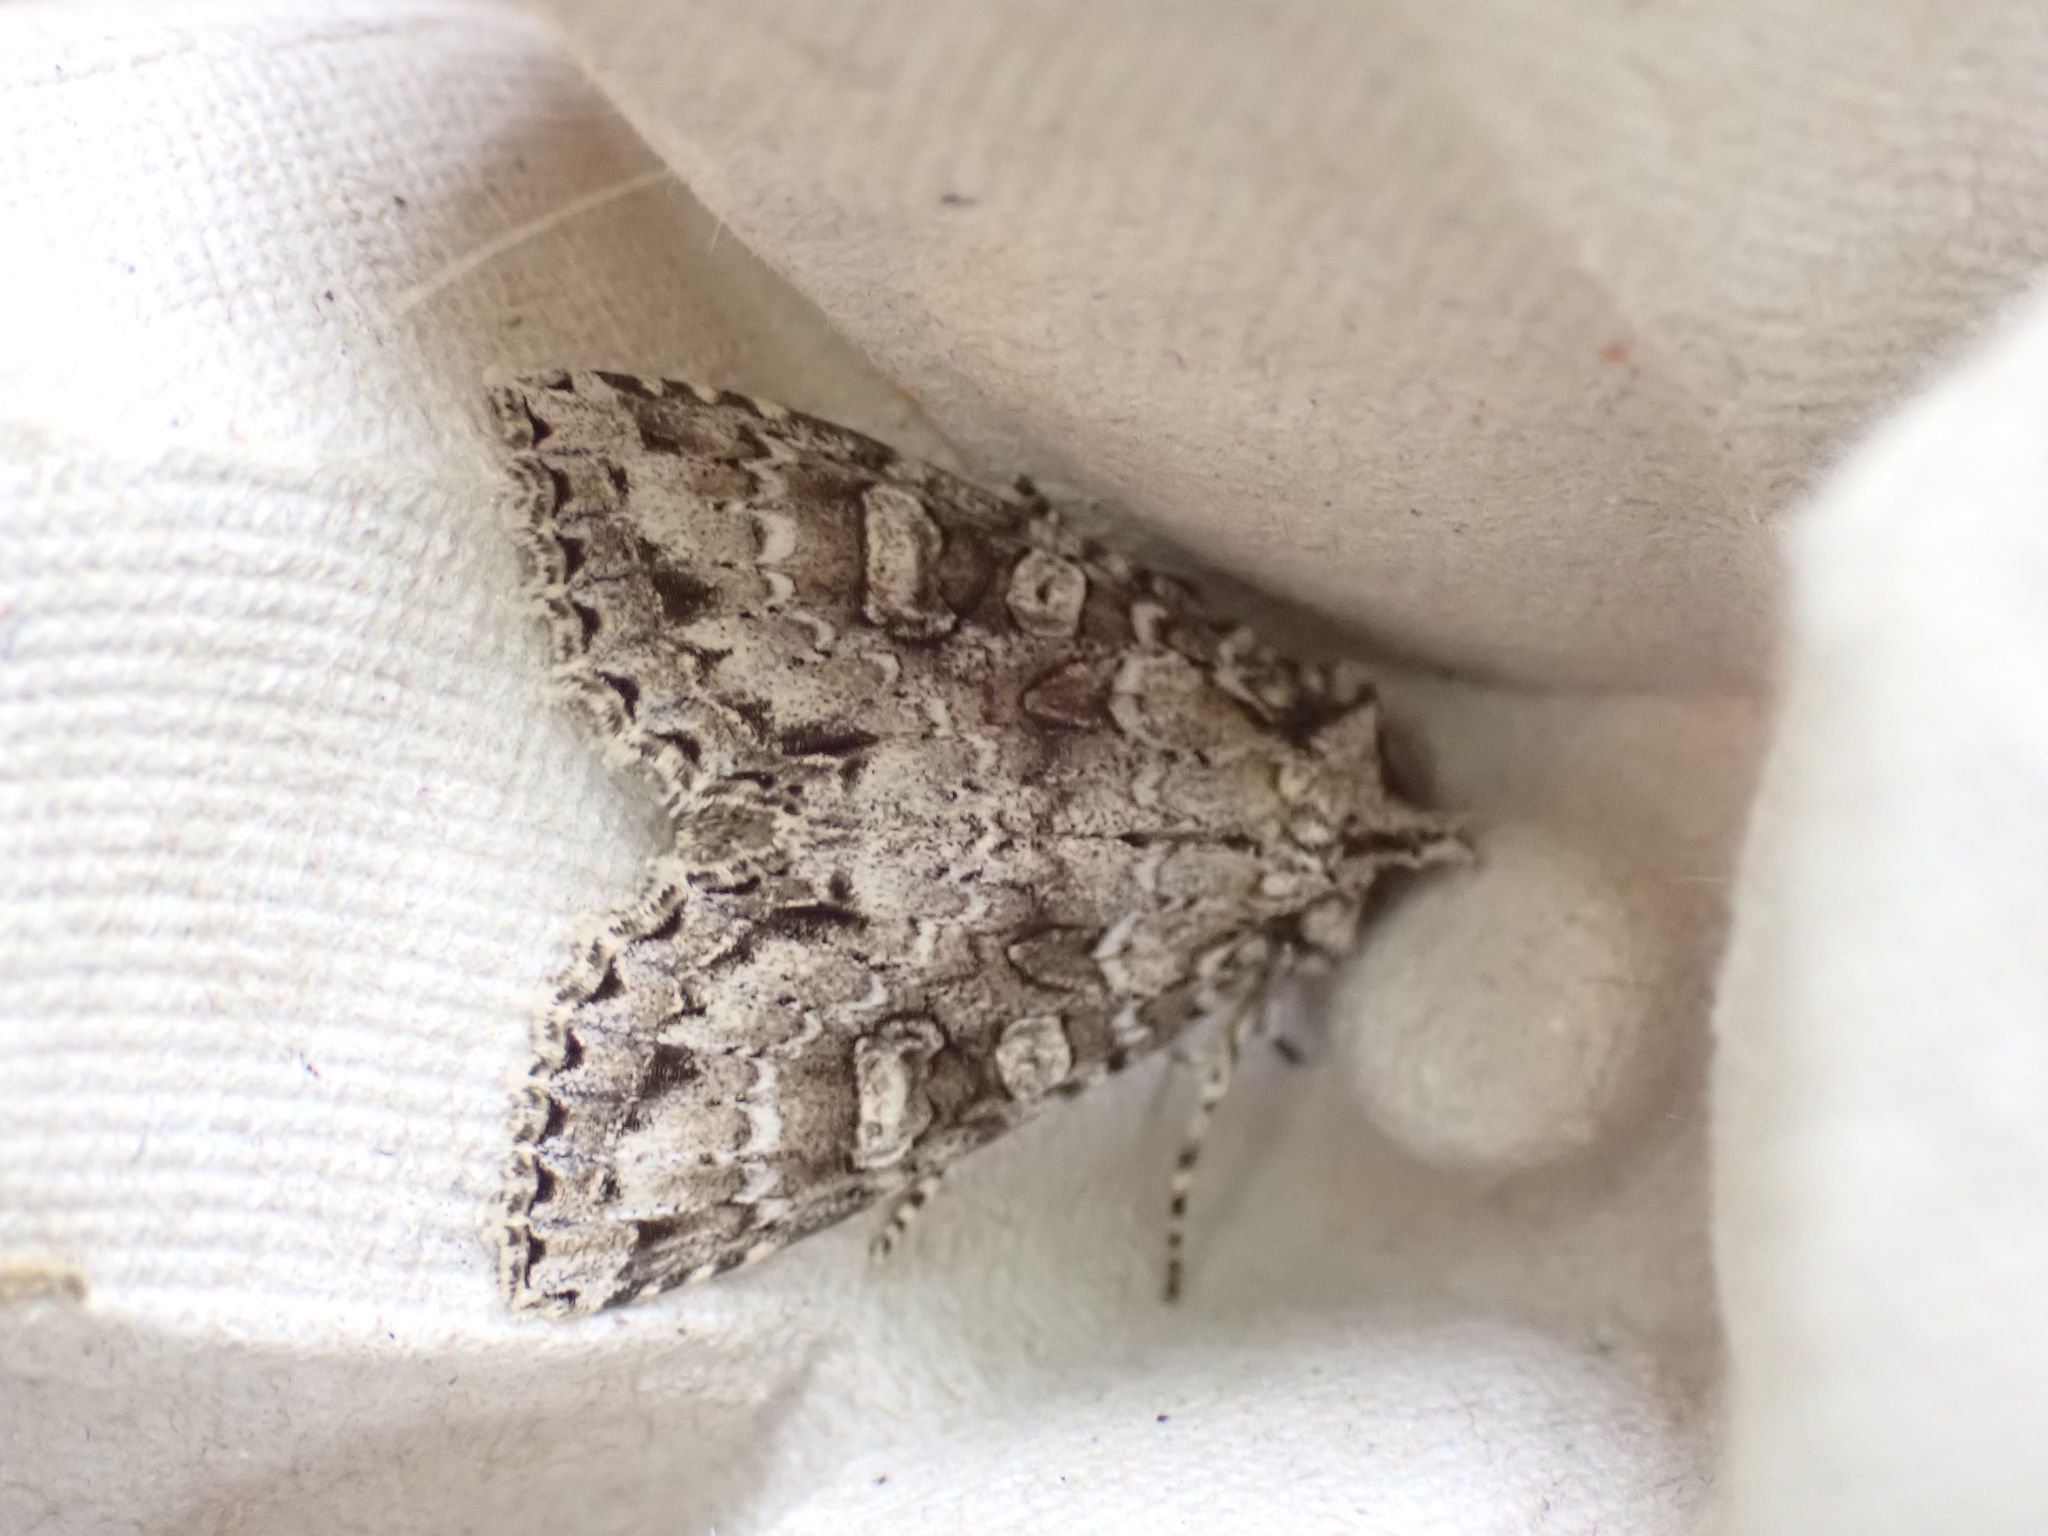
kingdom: Animalia
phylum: Arthropoda
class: Insecta
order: Lepidoptera
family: Noctuidae
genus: Polia
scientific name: Polia imbrifera
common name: Cloudy arches moth
